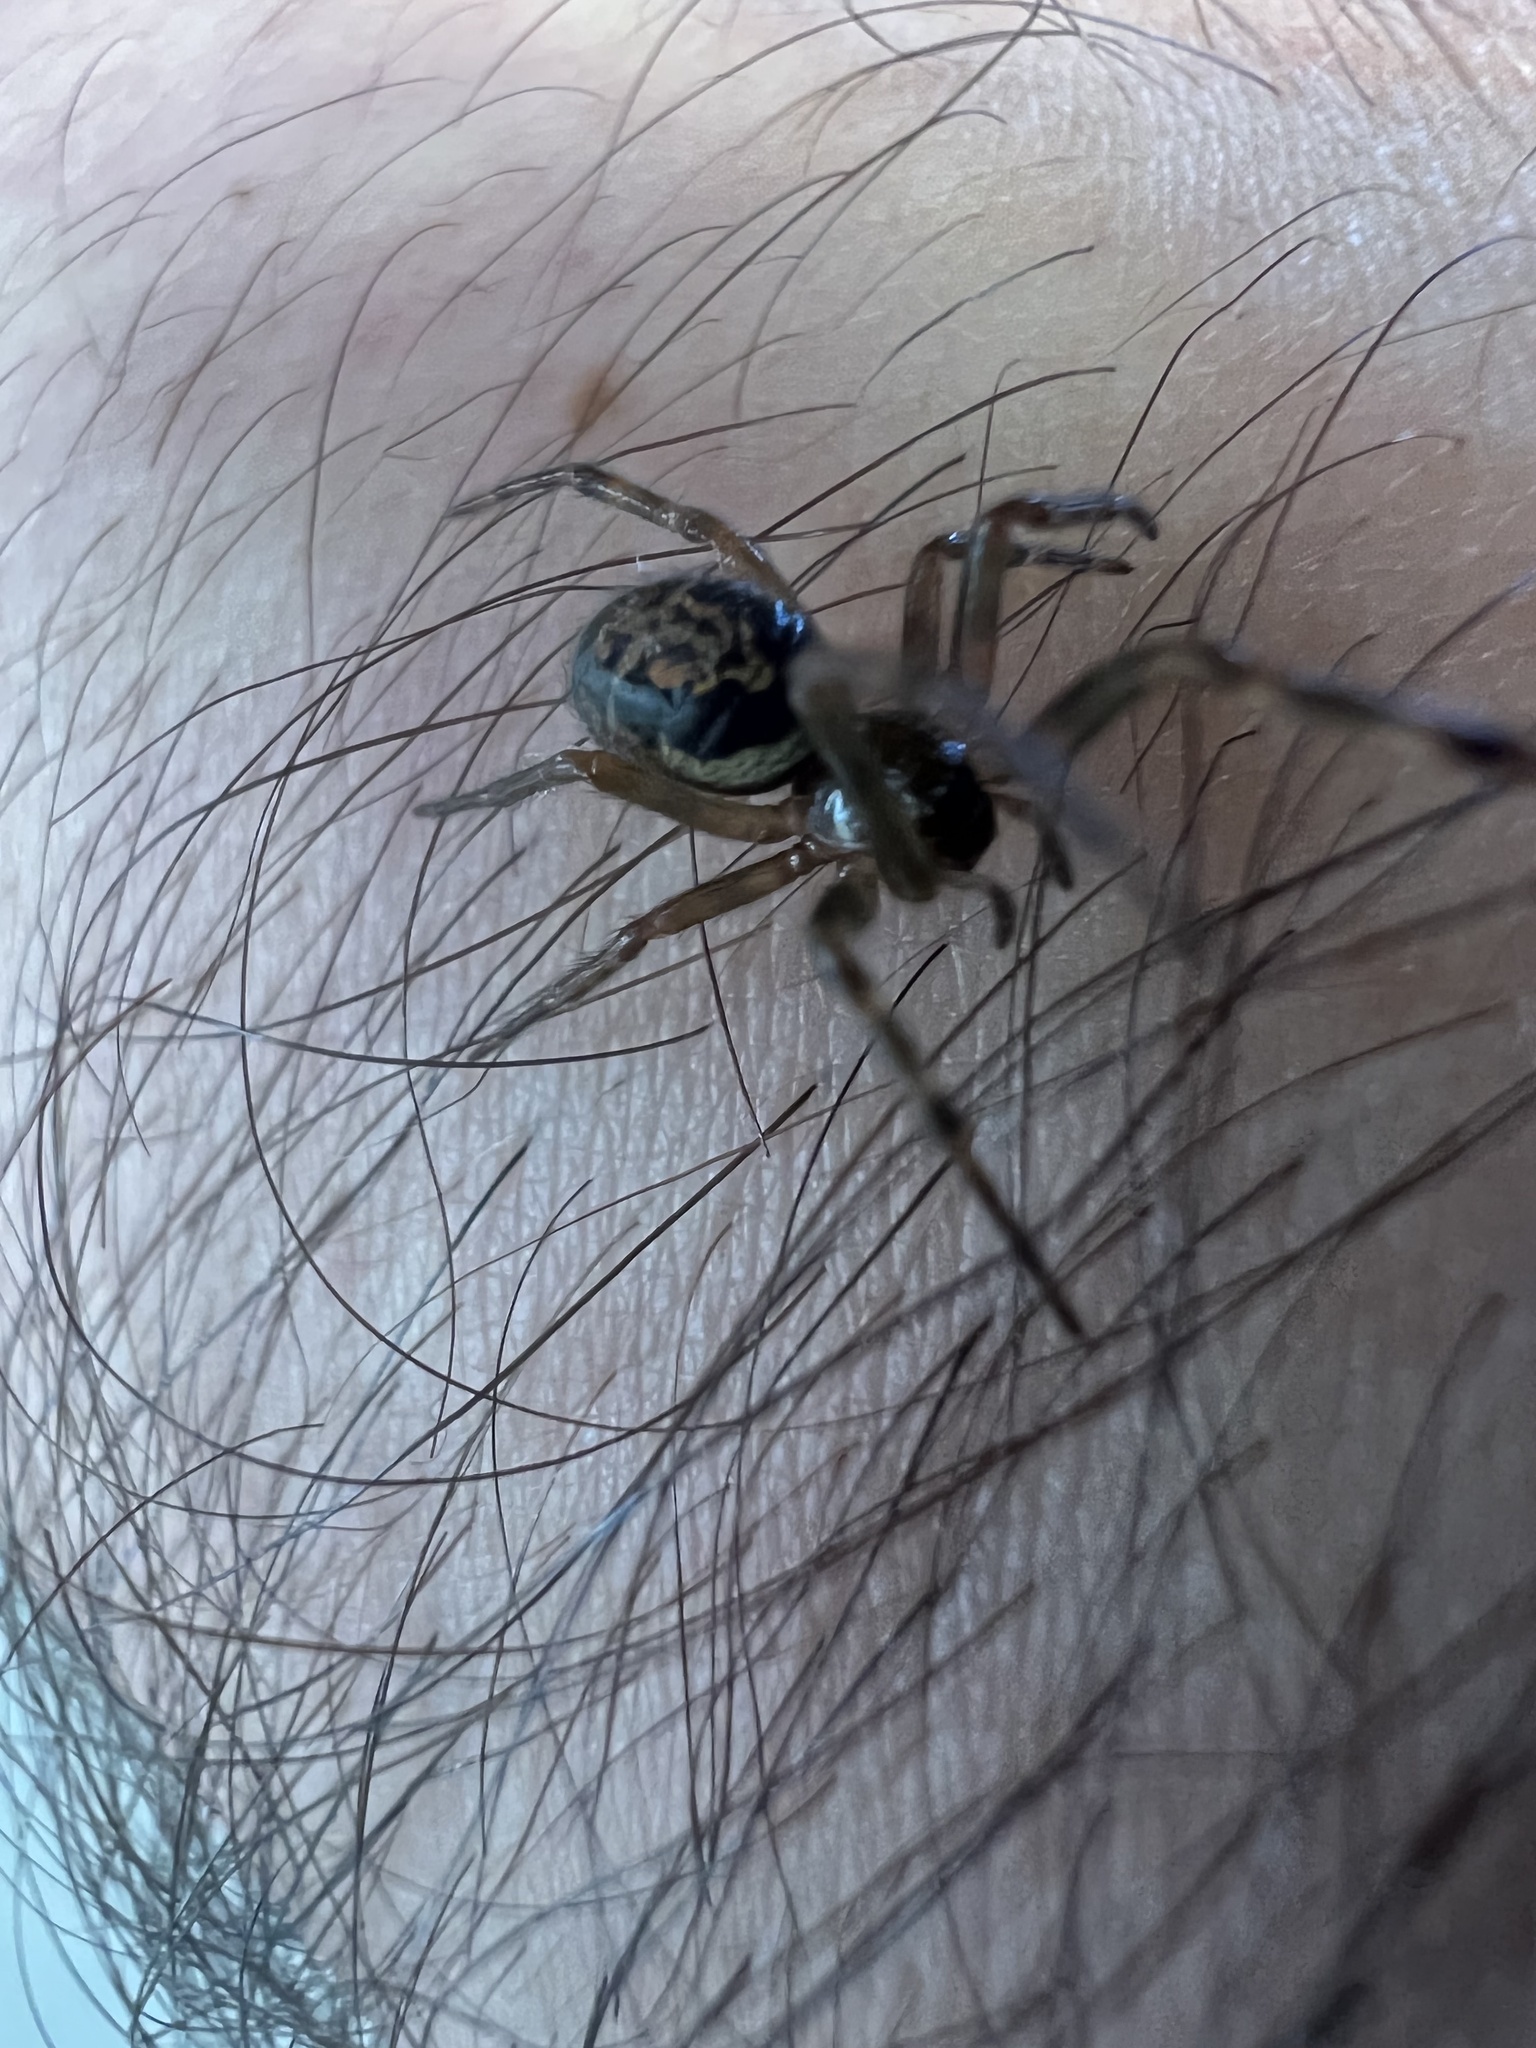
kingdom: Animalia
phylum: Arthropoda
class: Arachnida
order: Araneae
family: Theridiidae
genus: Steatoda
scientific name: Steatoda nobilis
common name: Cobweb weaver
